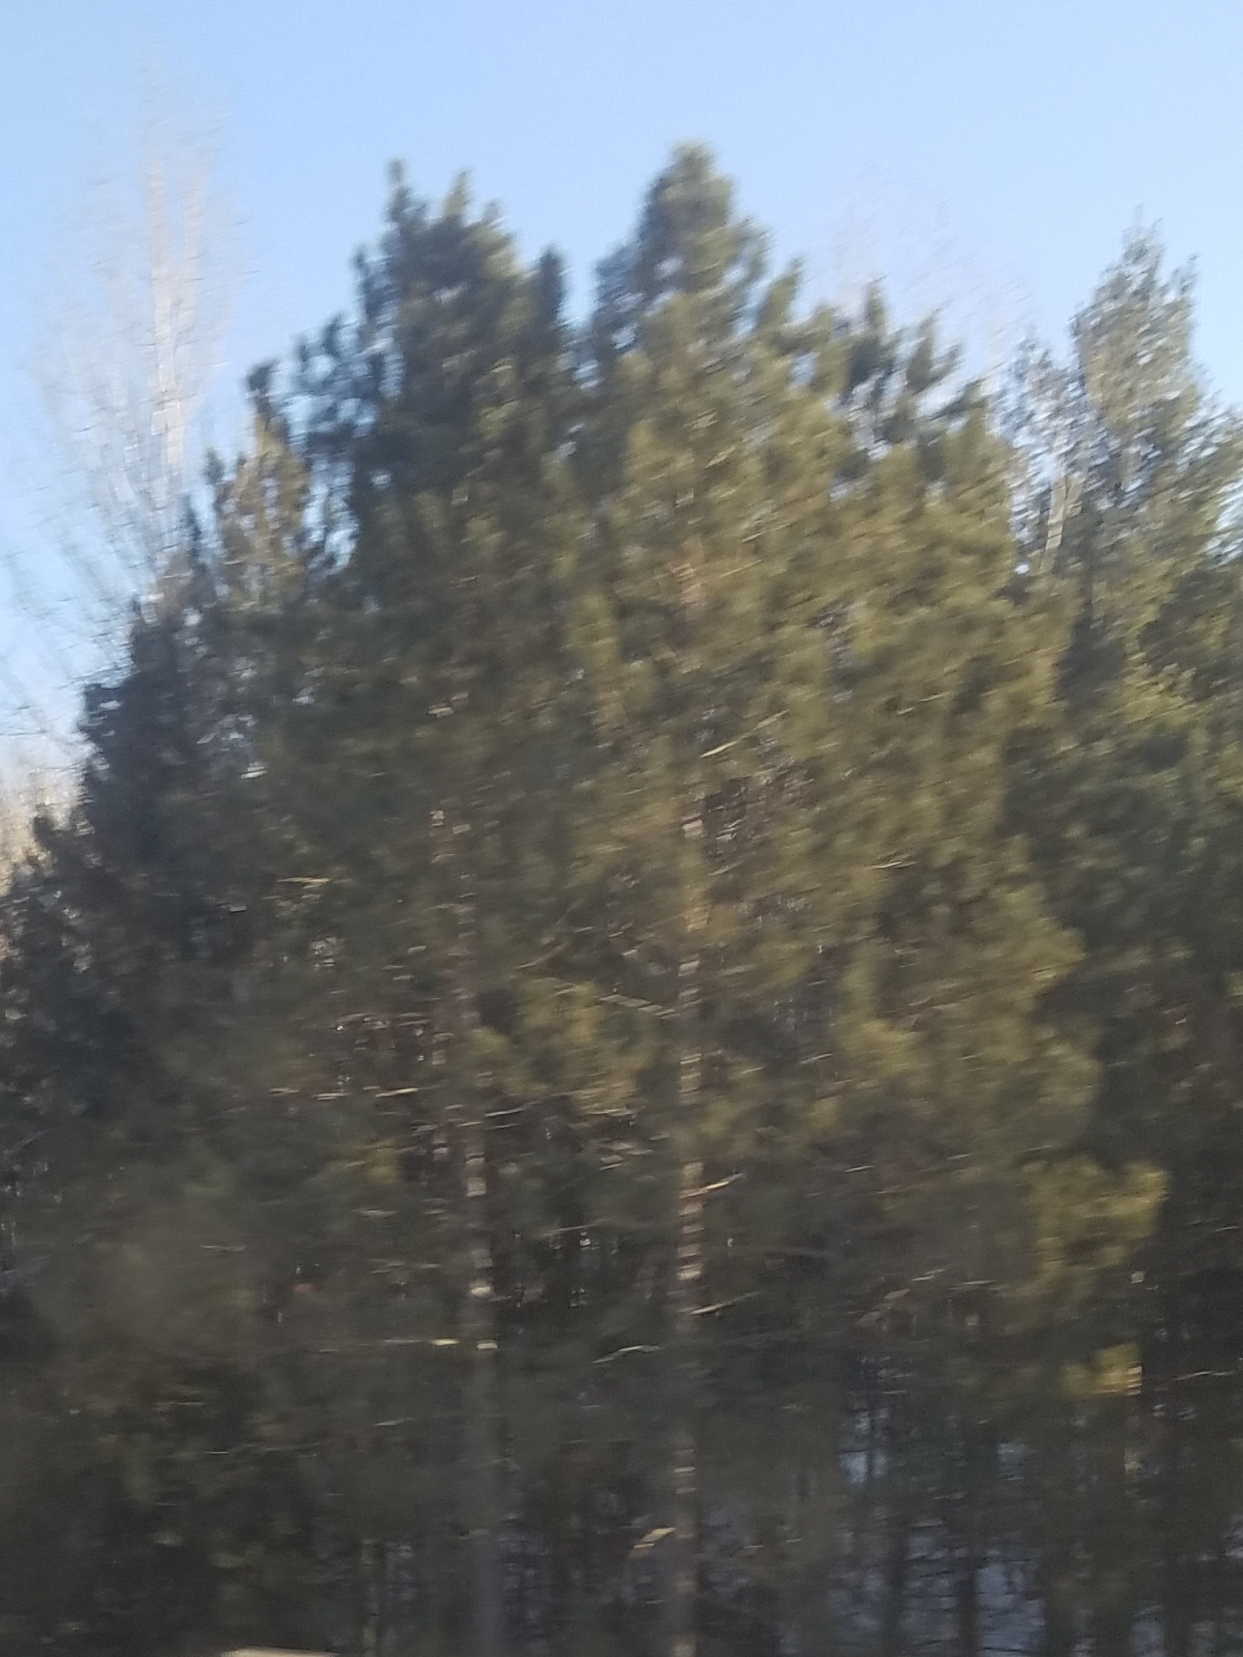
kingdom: Plantae
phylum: Tracheophyta
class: Pinopsida
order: Pinales
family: Pinaceae
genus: Pinus
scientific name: Pinus resinosa
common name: Norway pine
